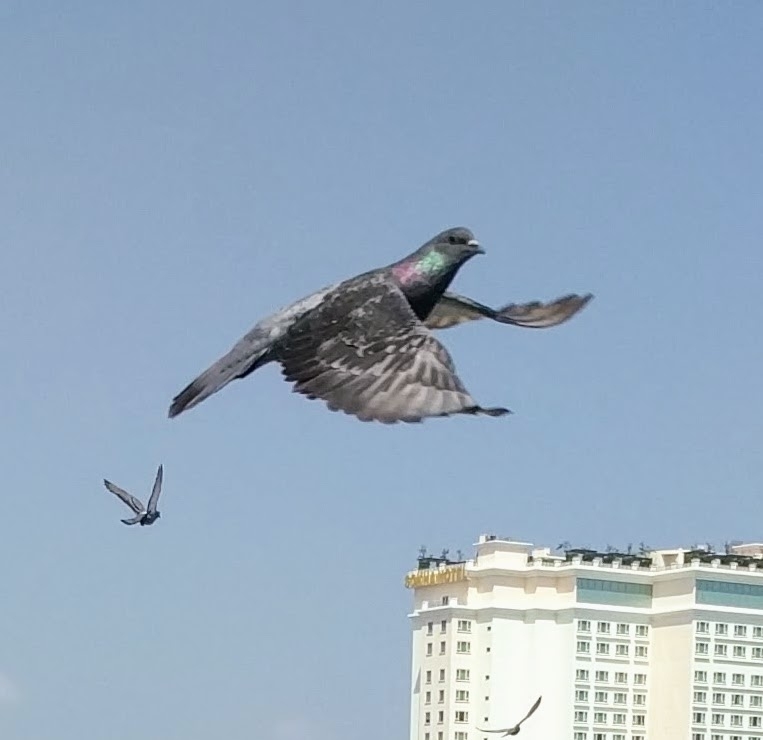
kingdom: Animalia
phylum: Chordata
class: Aves
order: Columbiformes
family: Columbidae
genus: Columba
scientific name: Columba livia
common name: Rock pigeon
